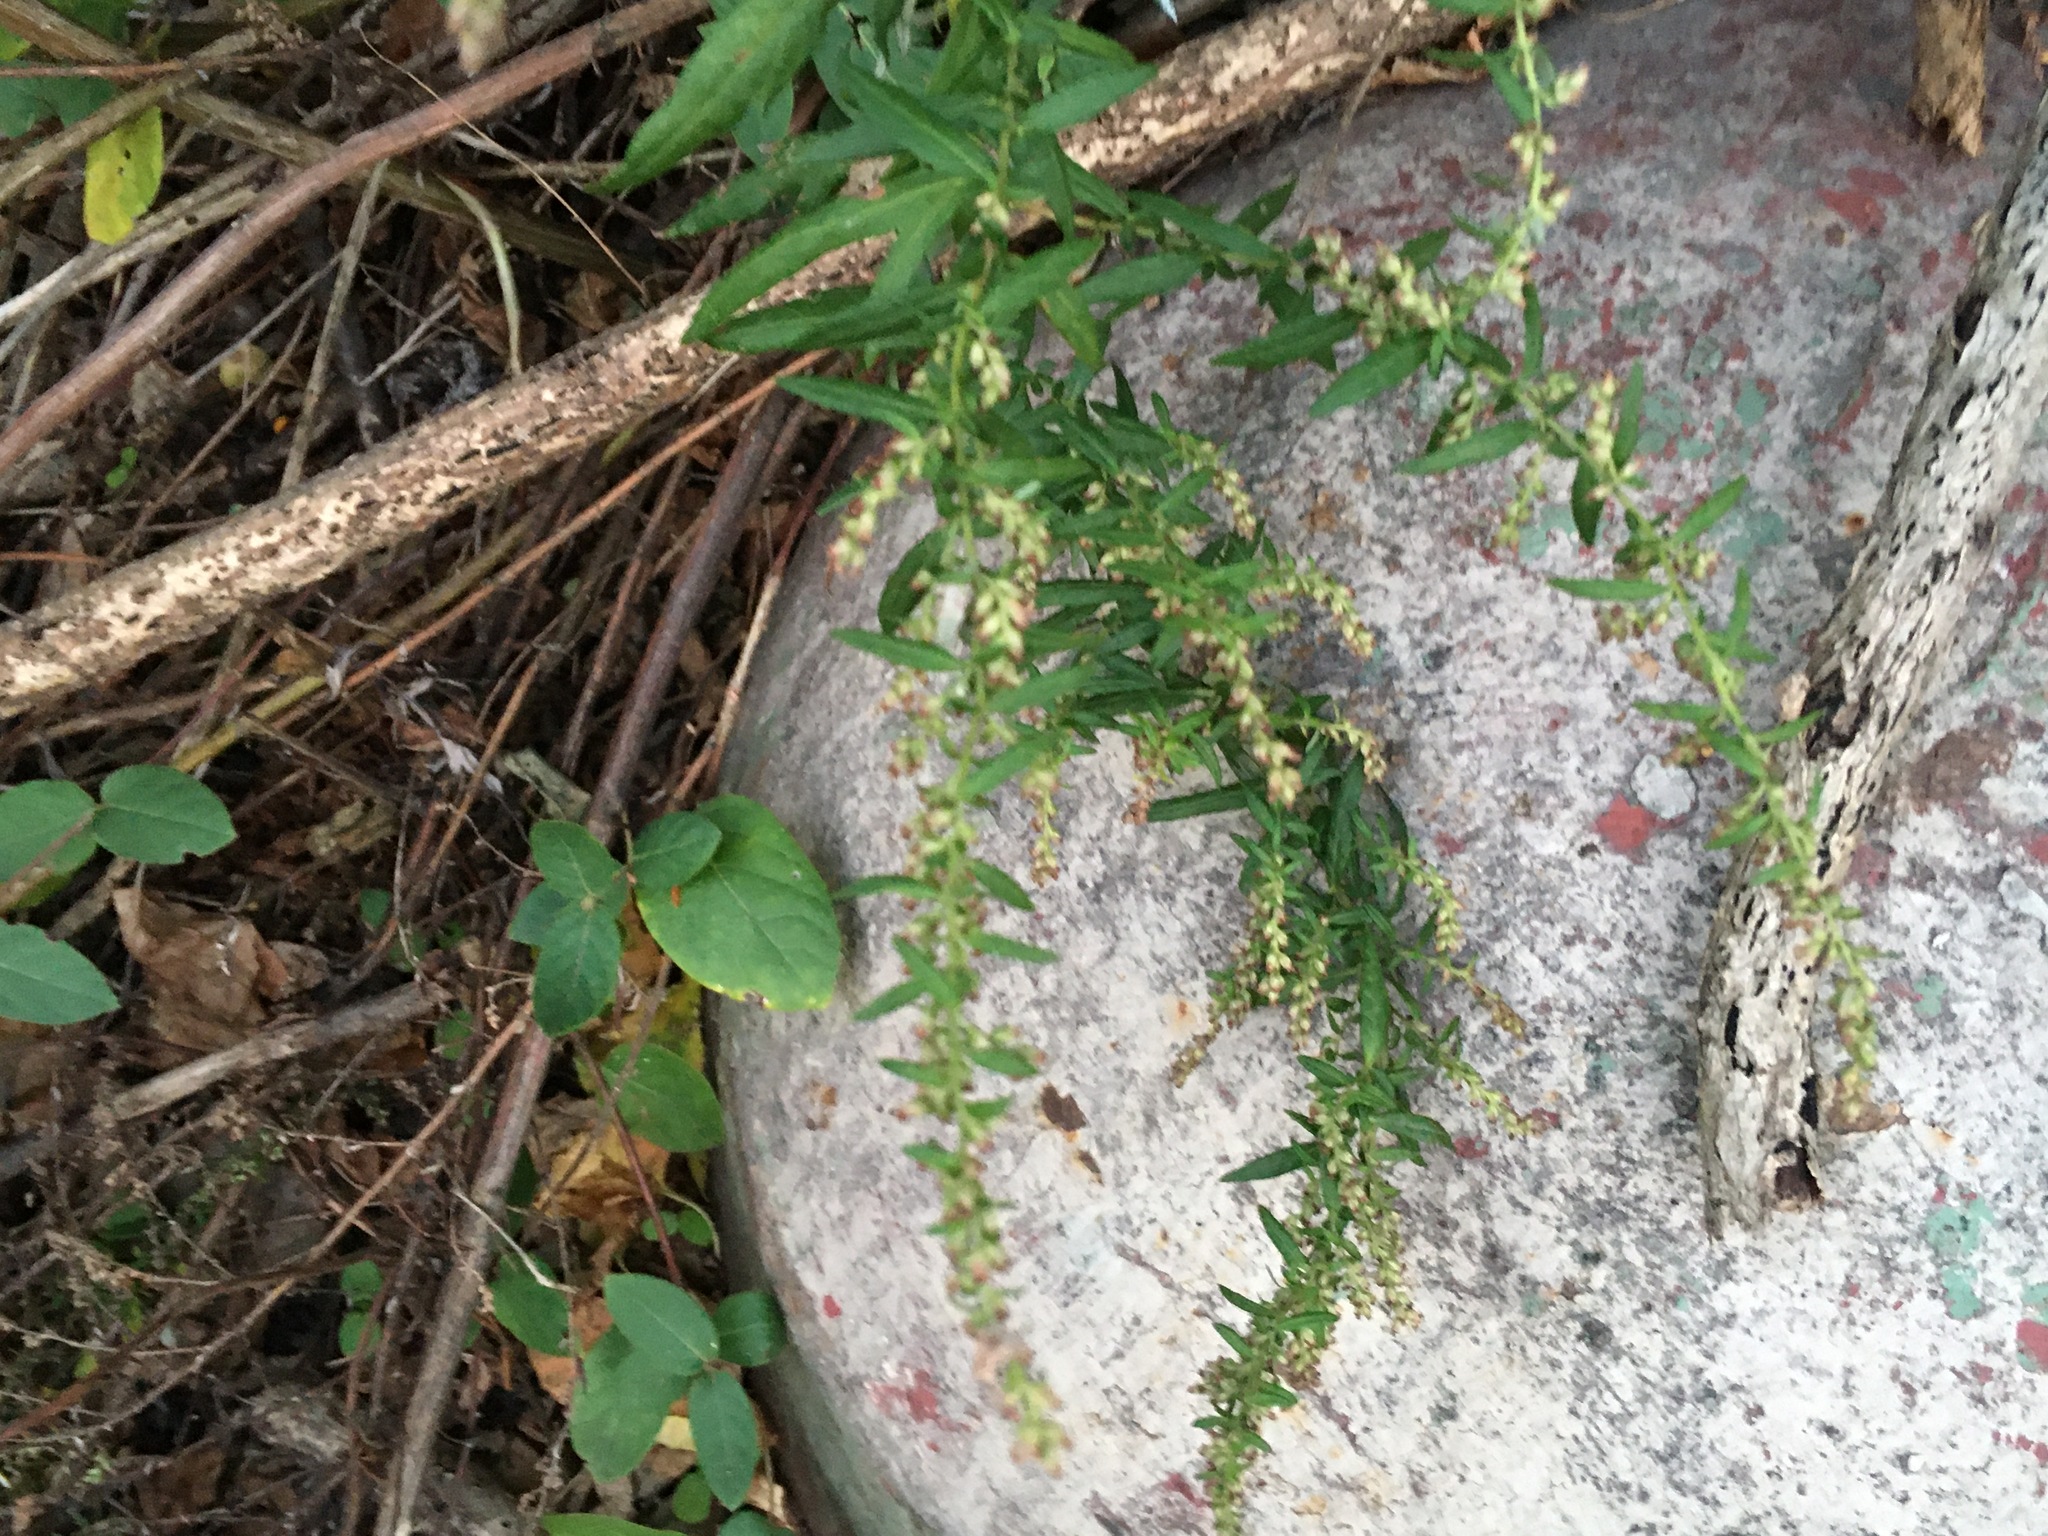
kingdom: Plantae
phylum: Tracheophyta
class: Magnoliopsida
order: Asterales
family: Asteraceae
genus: Artemisia
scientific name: Artemisia vulgaris
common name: Mugwort
